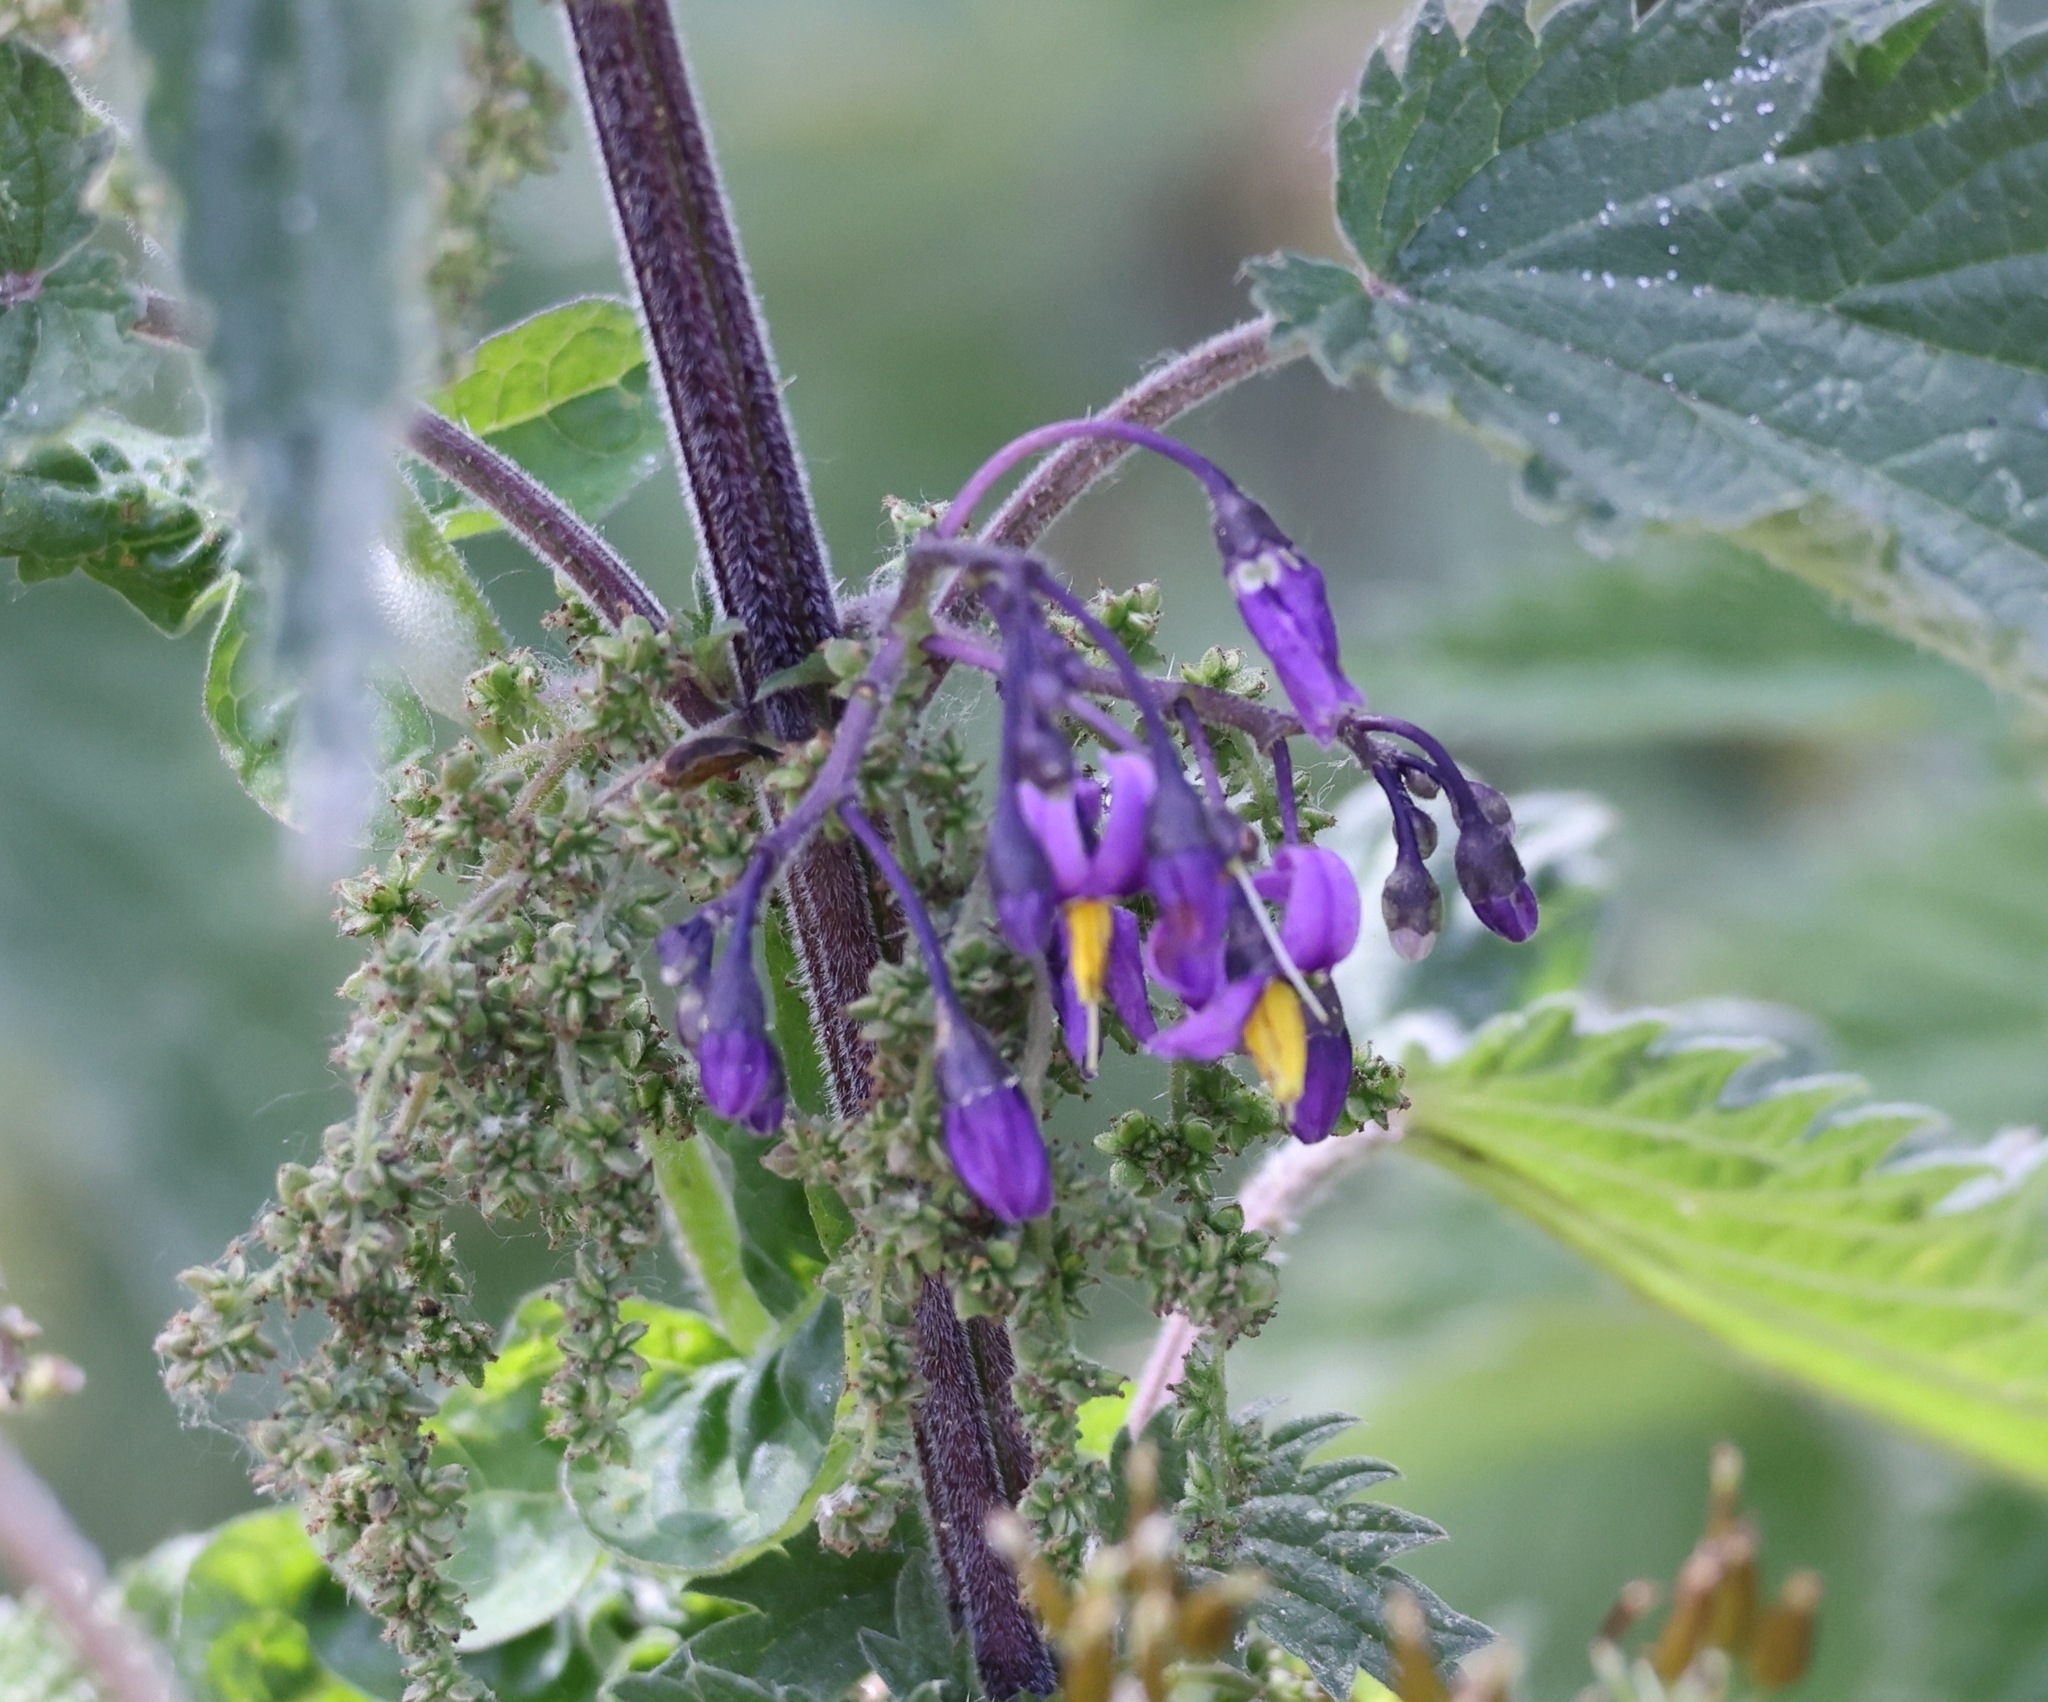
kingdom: Plantae
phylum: Tracheophyta
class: Magnoliopsida
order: Solanales
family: Solanaceae
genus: Solanum
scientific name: Solanum dulcamara
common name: Climbing nightshade
